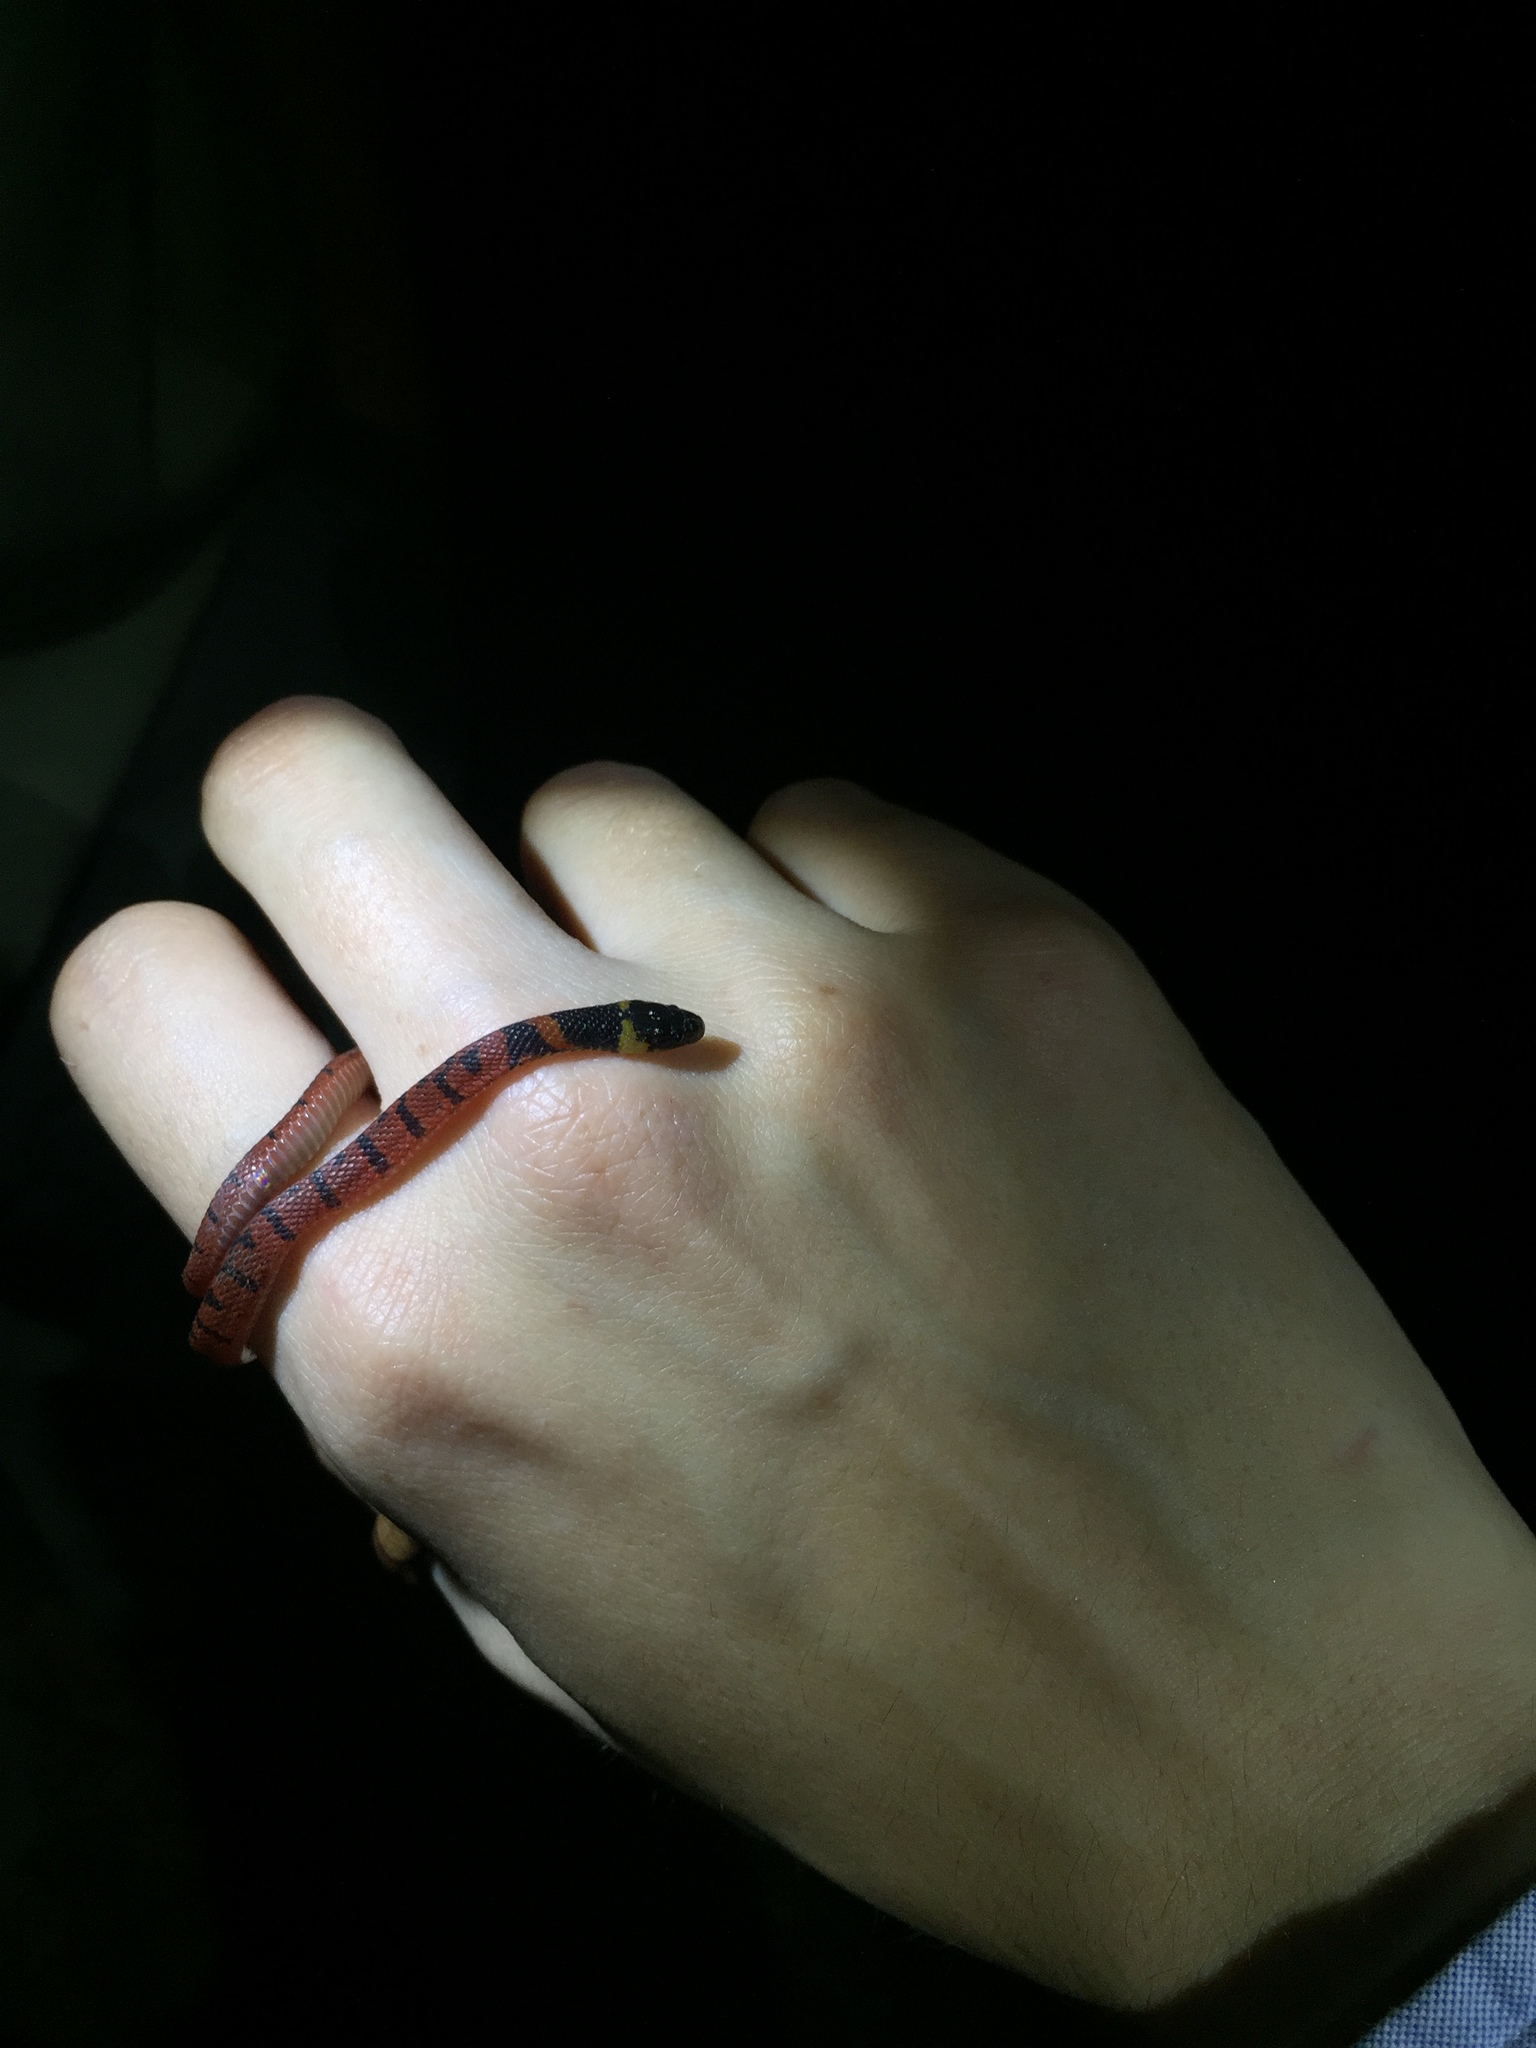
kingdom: Animalia
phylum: Chordata
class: Squamata
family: Colubridae
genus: Ninia
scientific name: Ninia sebae
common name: Redback coffee snake
